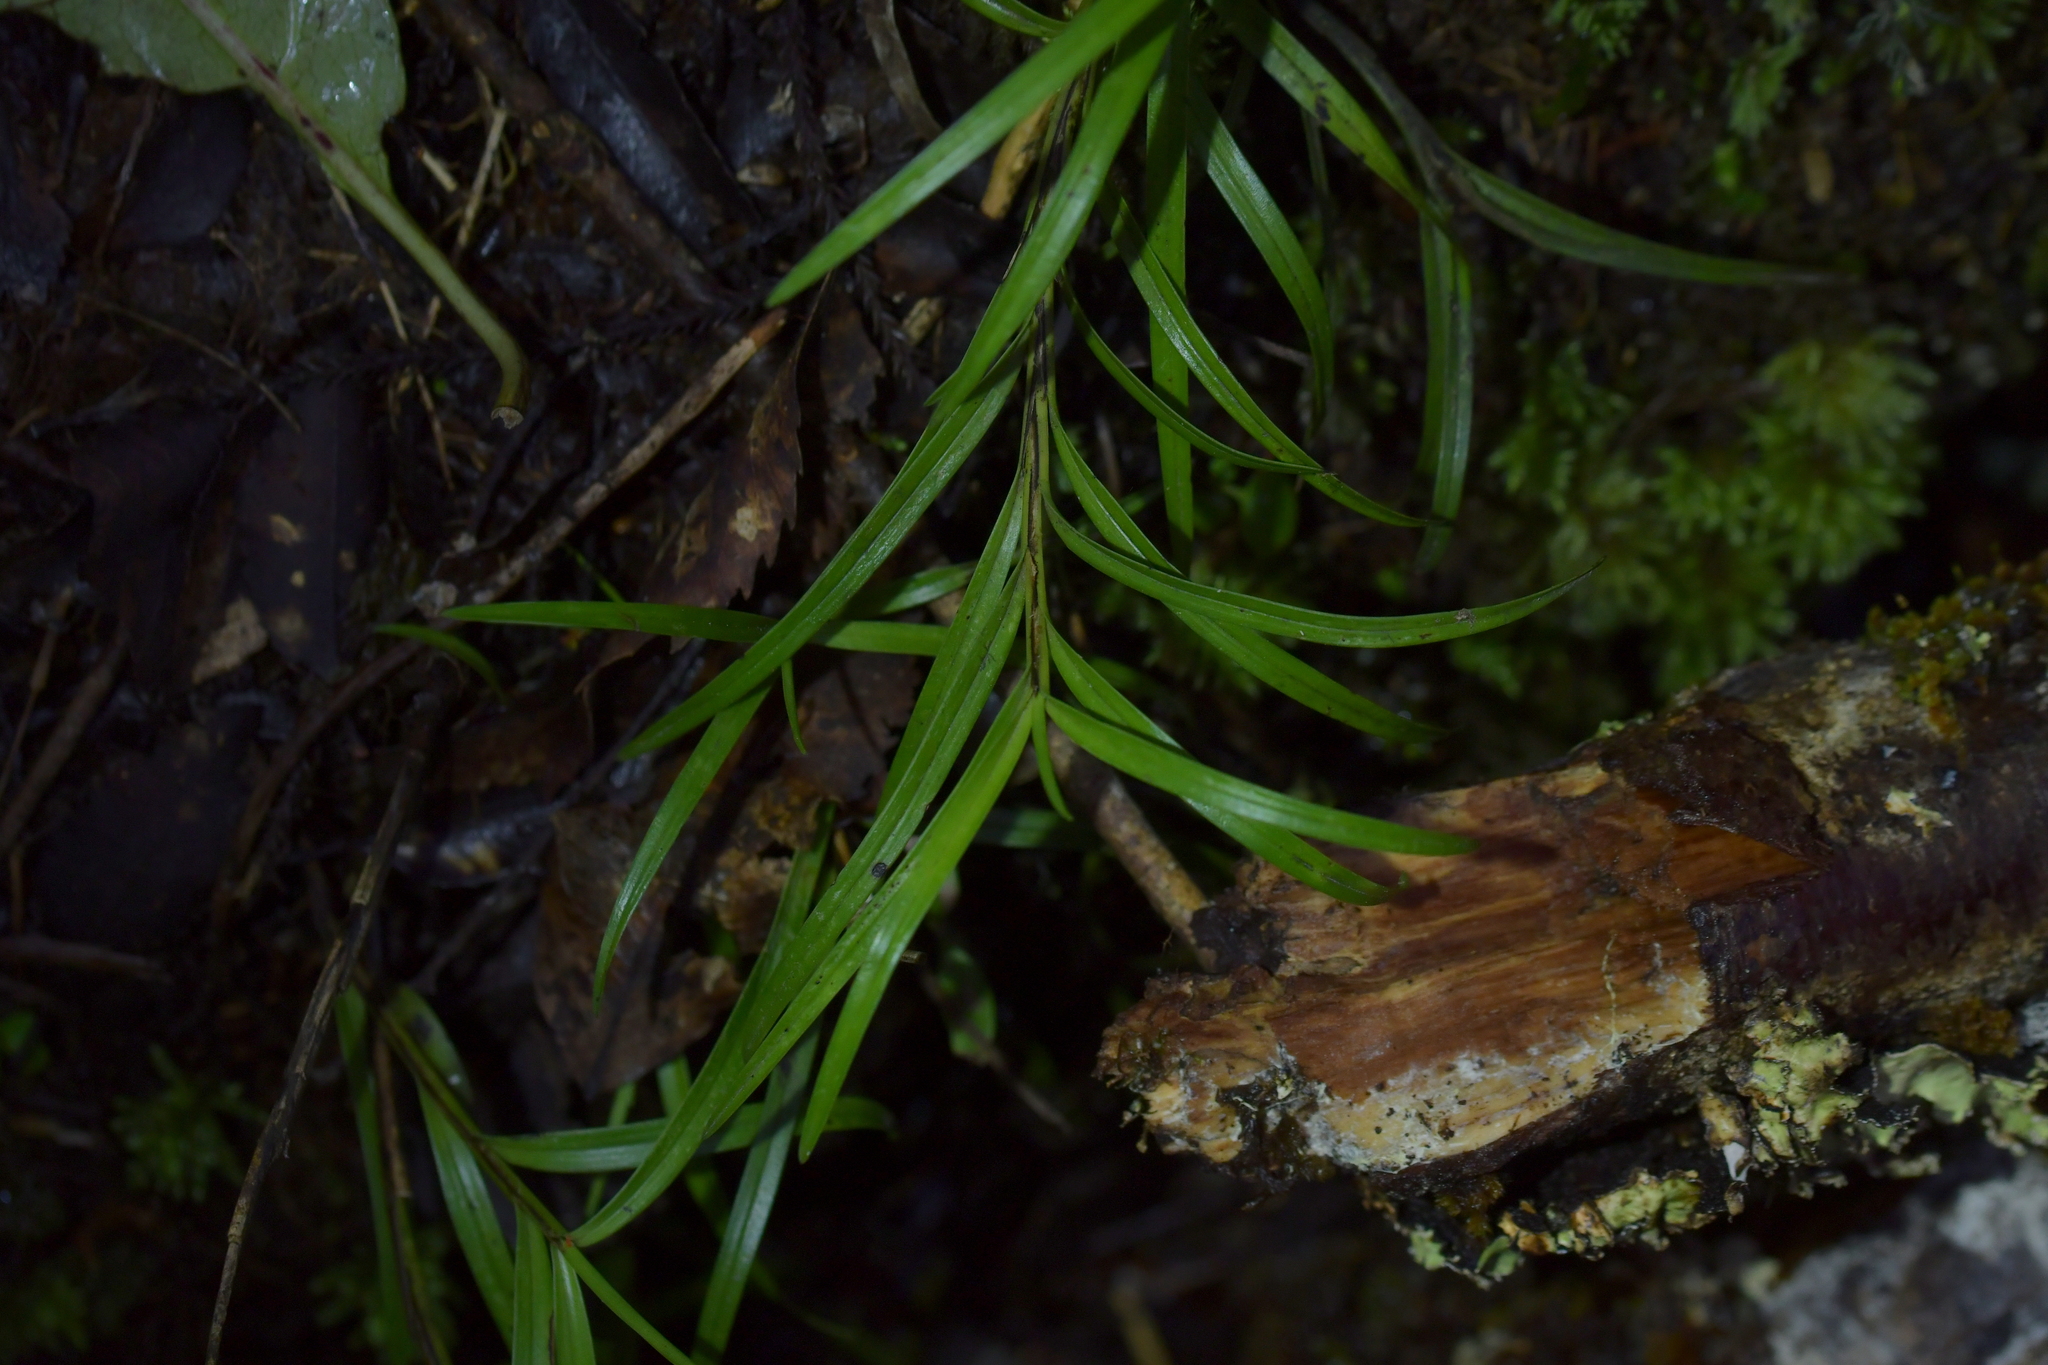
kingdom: Plantae
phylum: Tracheophyta
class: Liliopsida
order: Asparagales
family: Orchidaceae
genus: Earina
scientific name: Earina autumnalis
